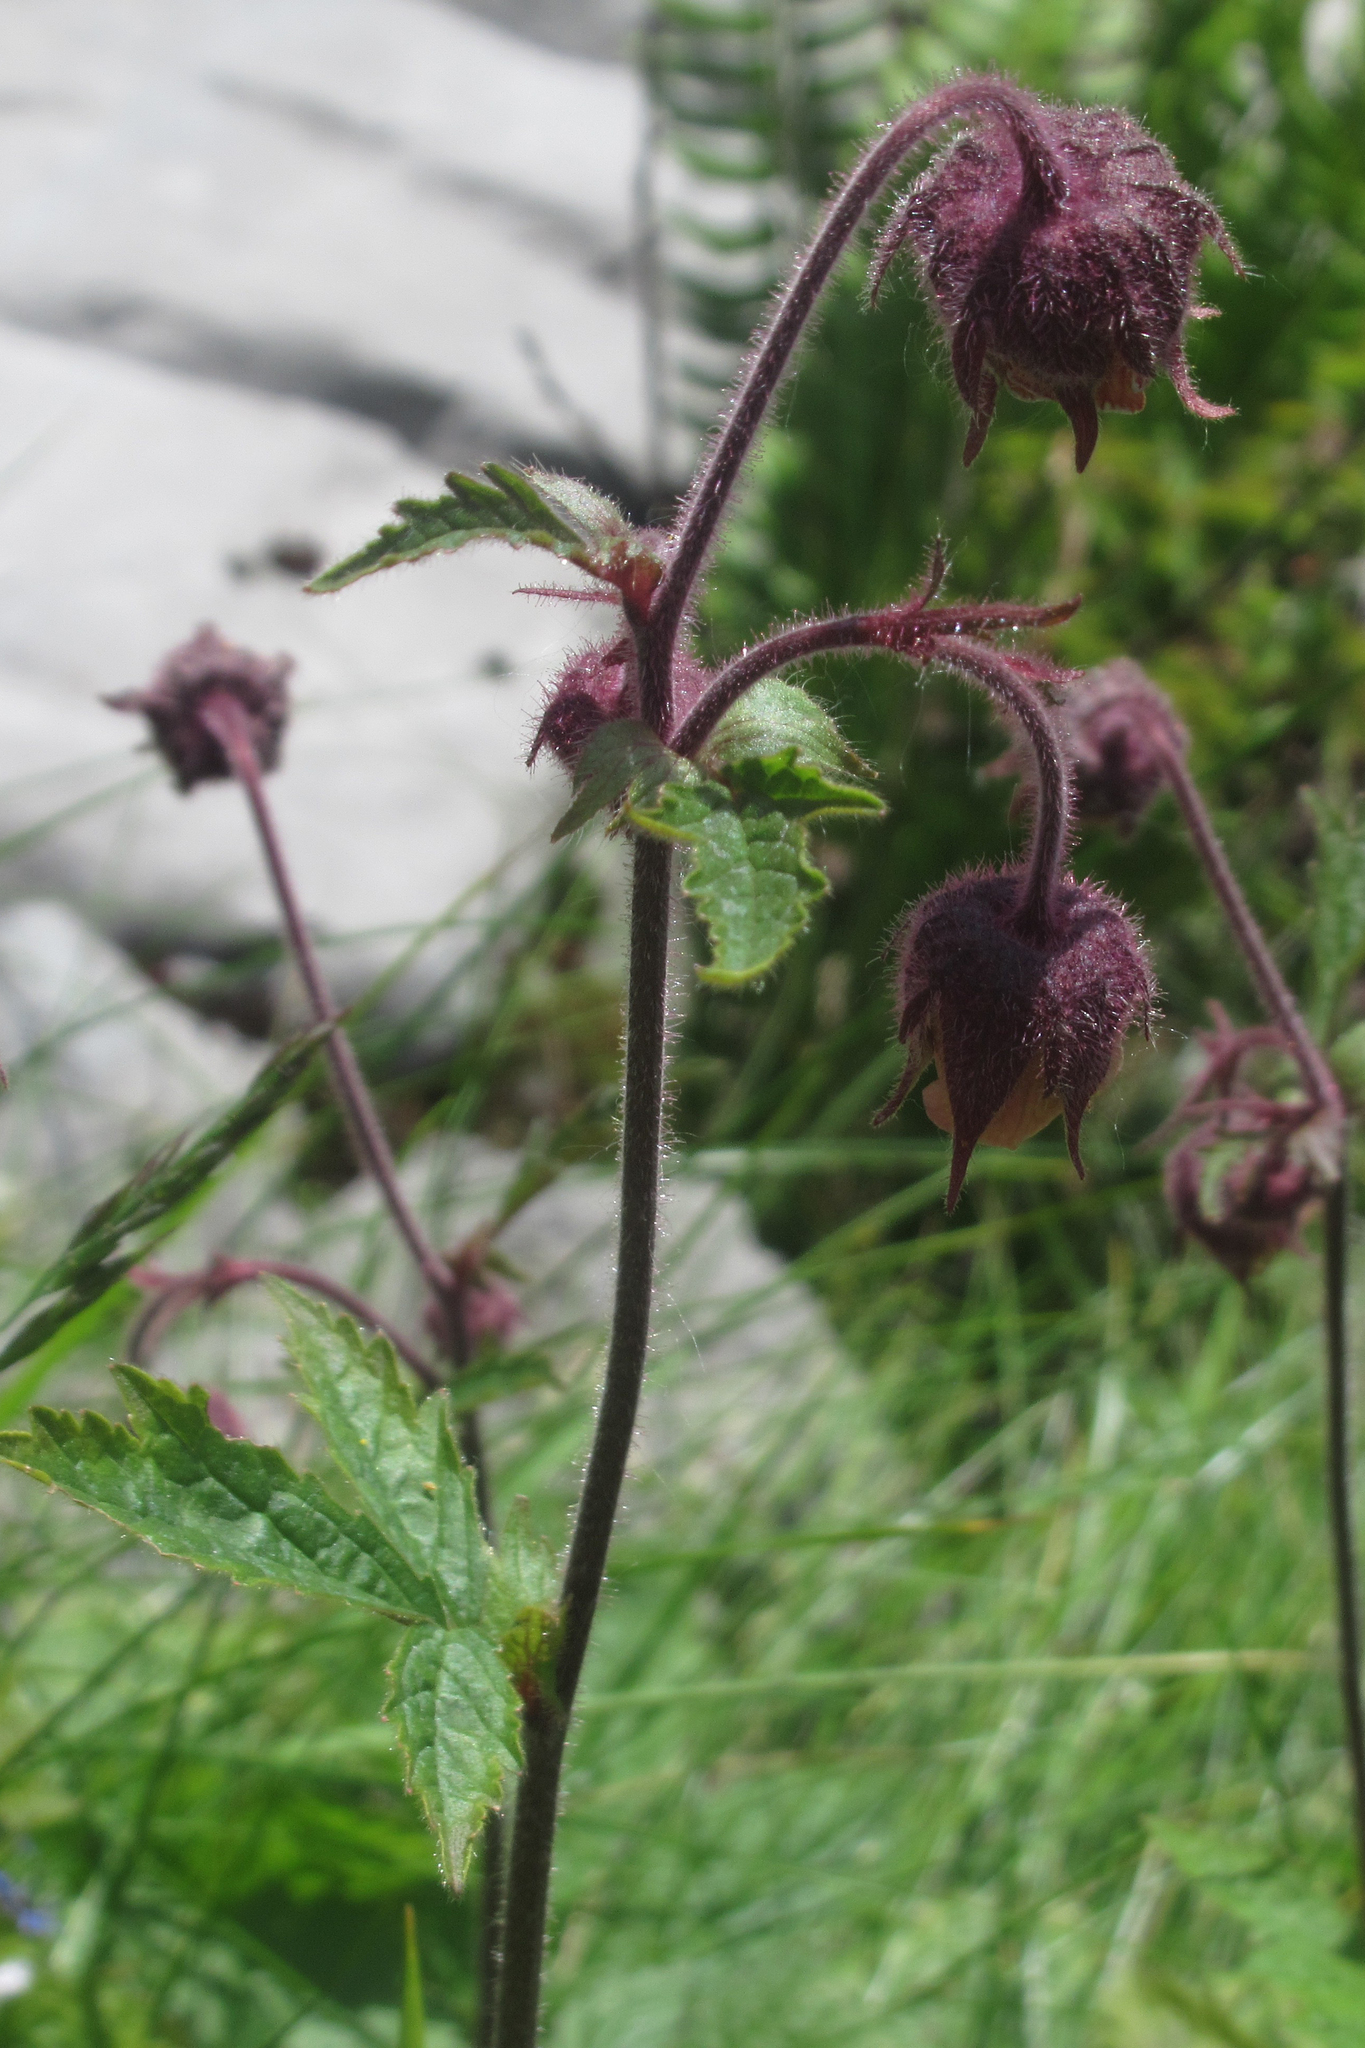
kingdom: Plantae
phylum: Tracheophyta
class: Magnoliopsida
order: Rosales
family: Rosaceae
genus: Geum
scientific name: Geum rivale
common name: Water avens
